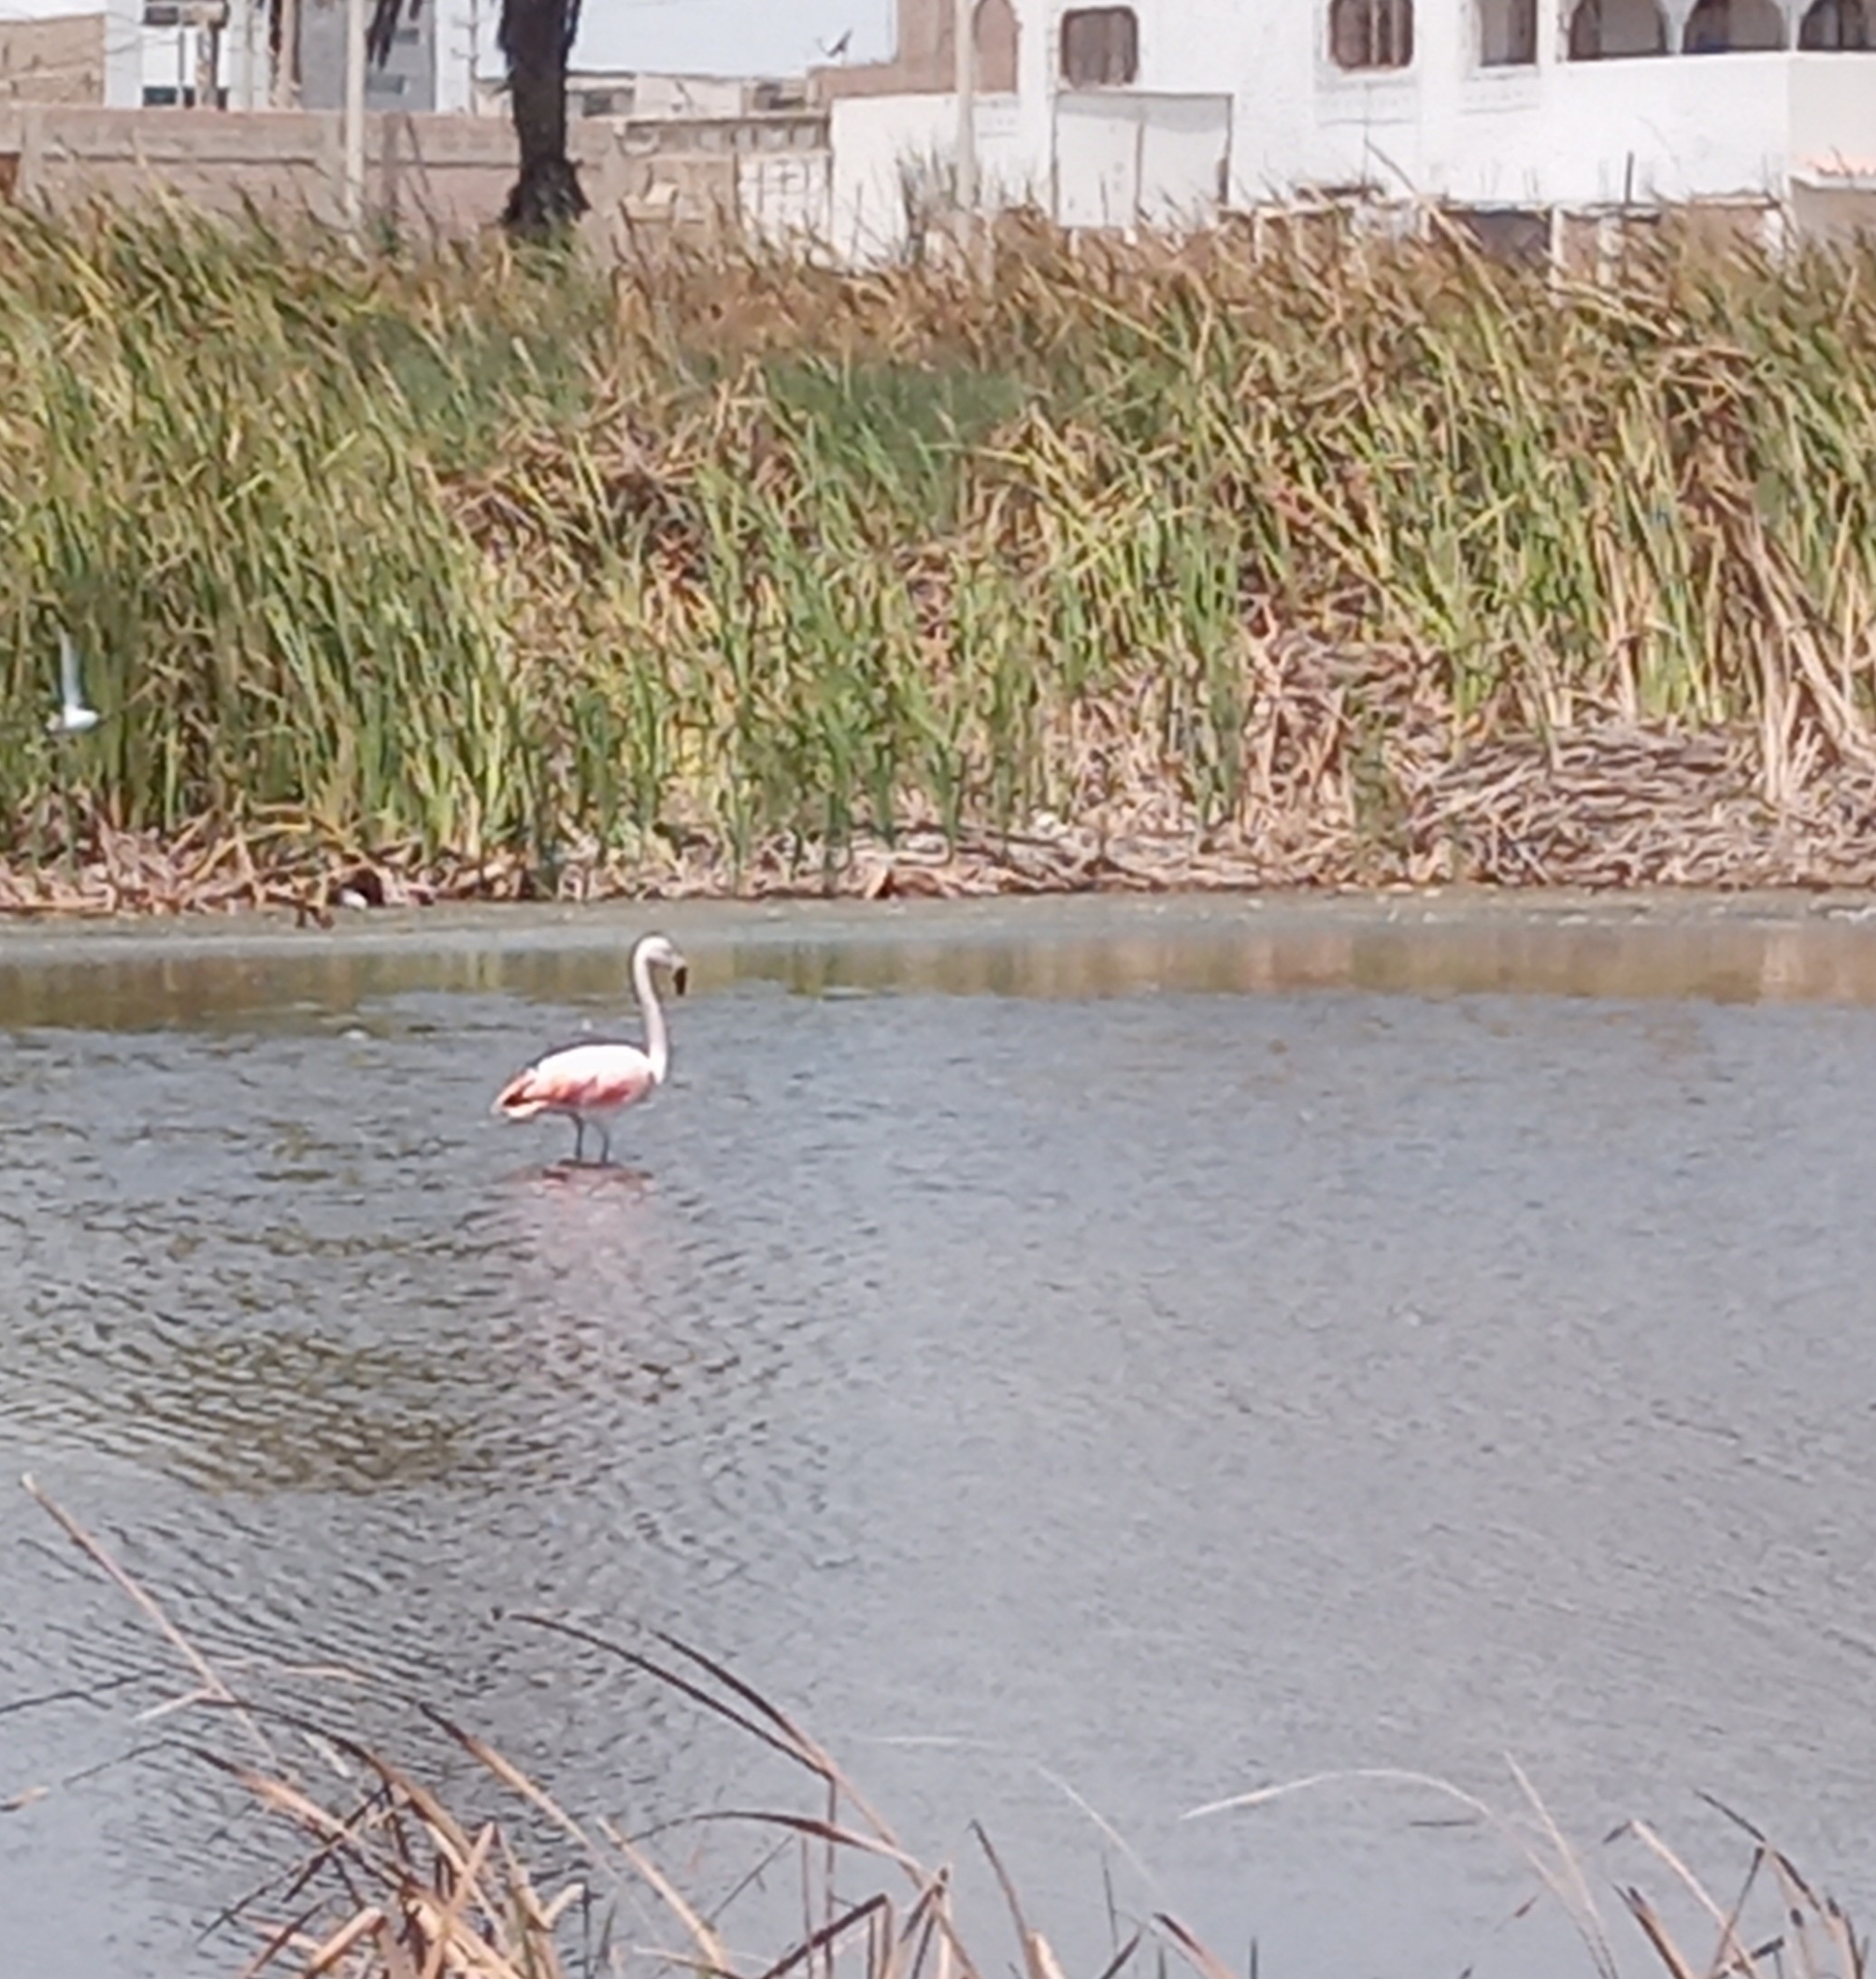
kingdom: Animalia
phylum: Chordata
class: Aves
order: Phoenicopteriformes
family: Phoenicopteridae
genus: Phoenicopterus
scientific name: Phoenicopterus chilensis
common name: Chilean flamingo
